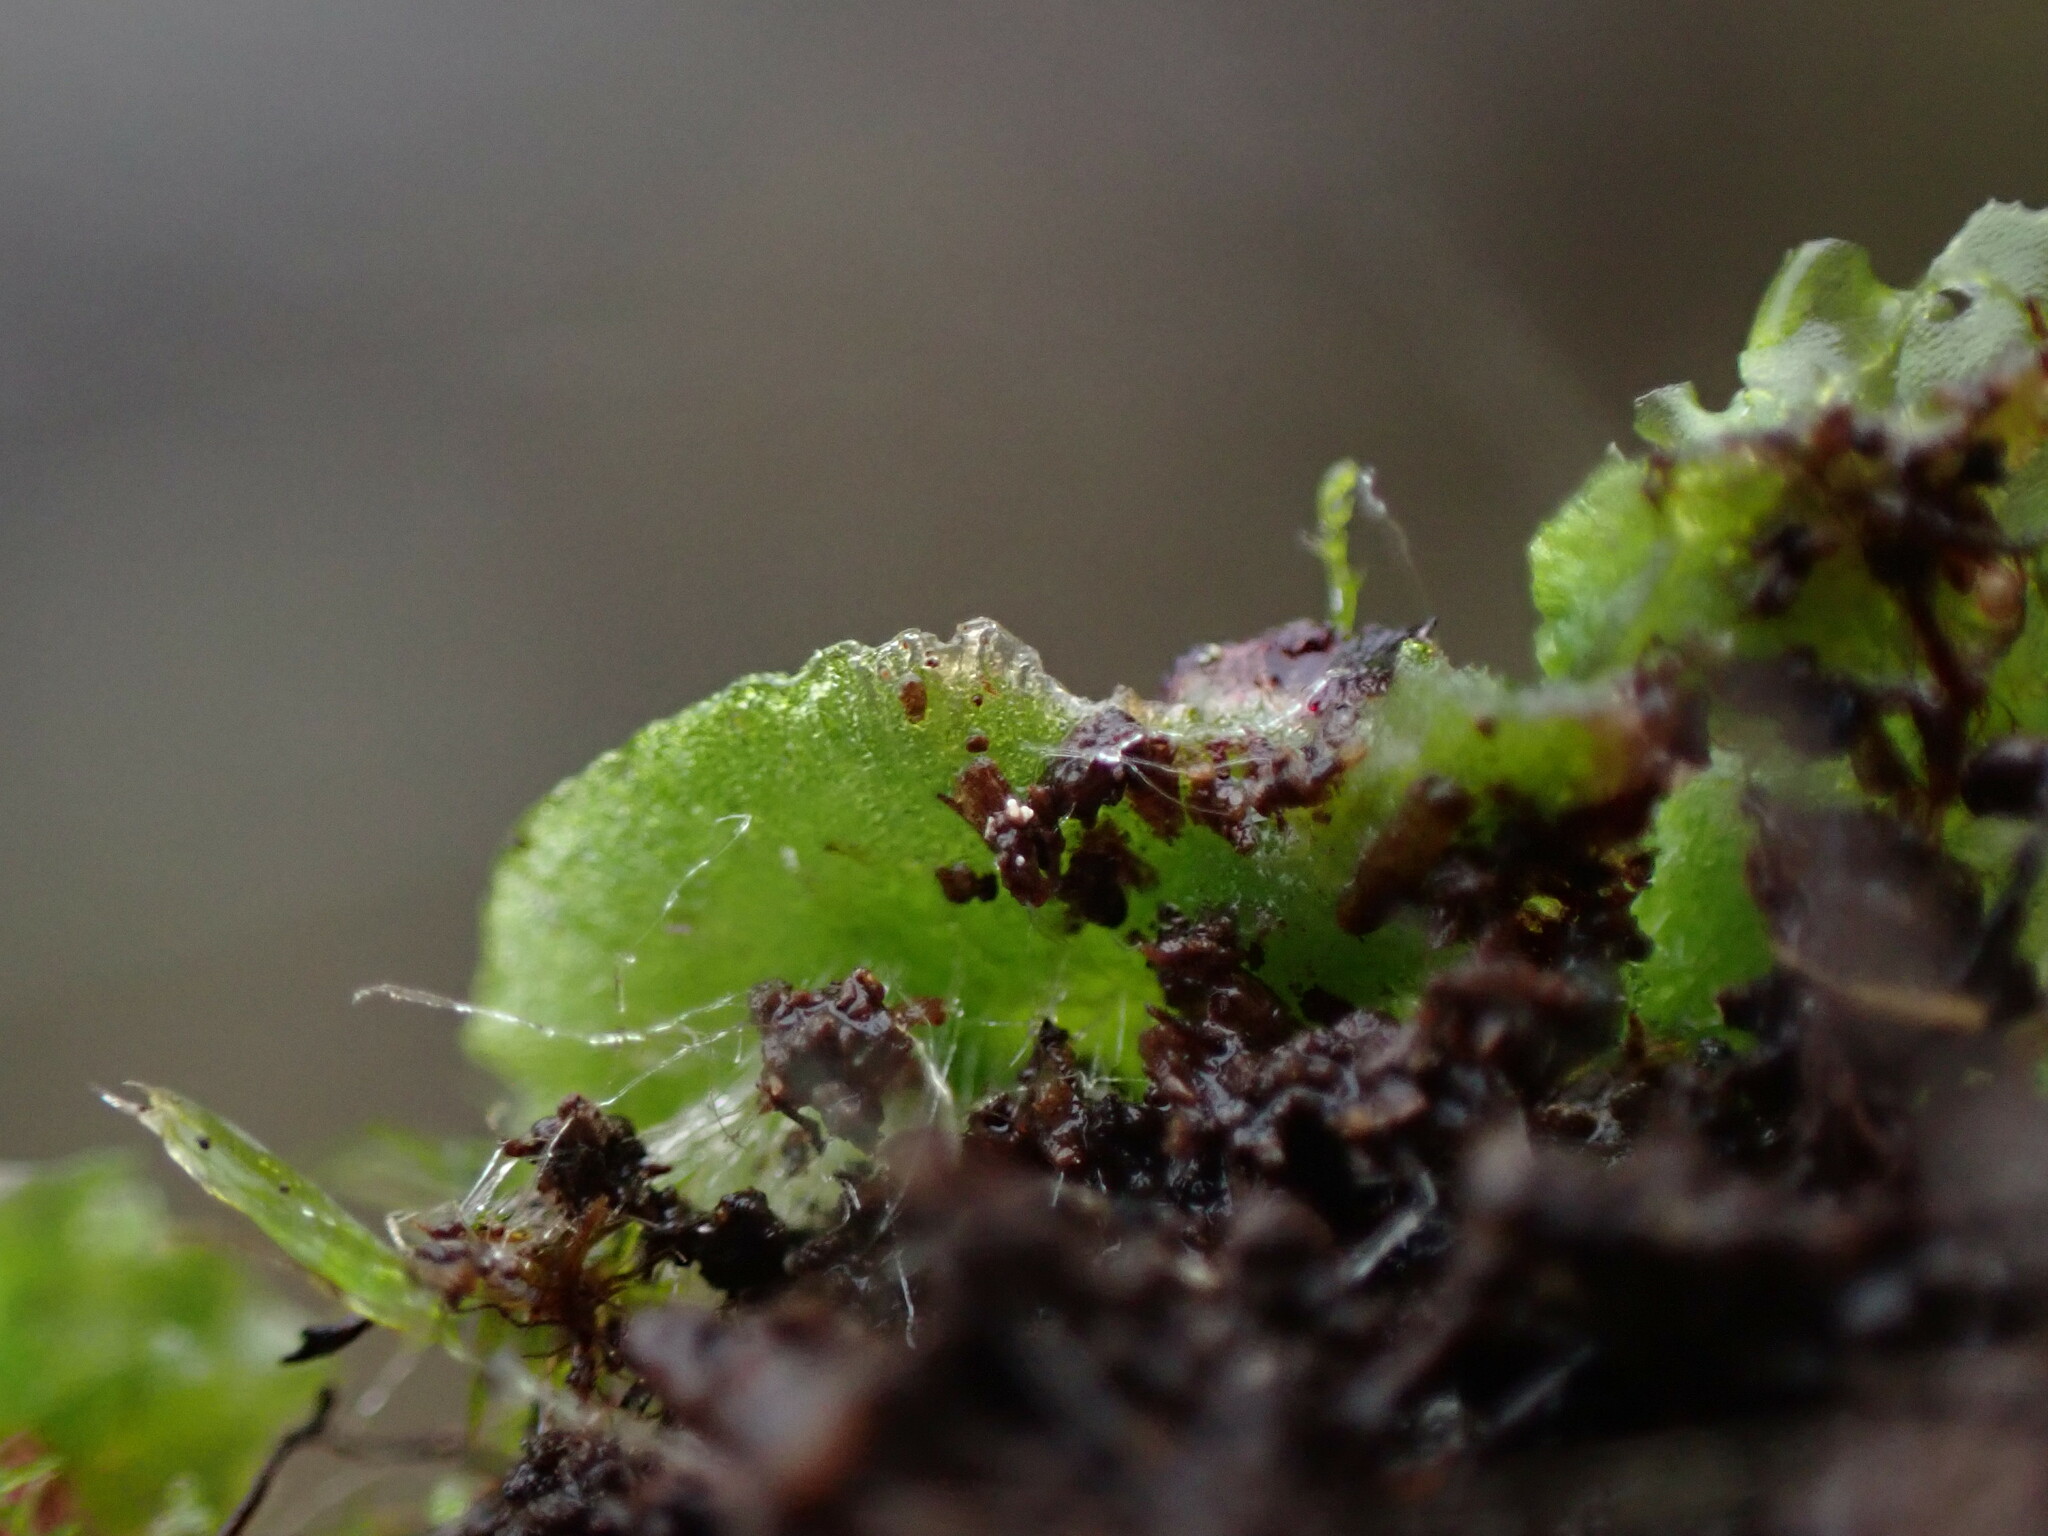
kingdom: Plantae
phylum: Marchantiophyta
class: Marchantiopsida
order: Marchantiales
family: Aytoniaceae
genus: Mannia
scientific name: Mannia gracilis
